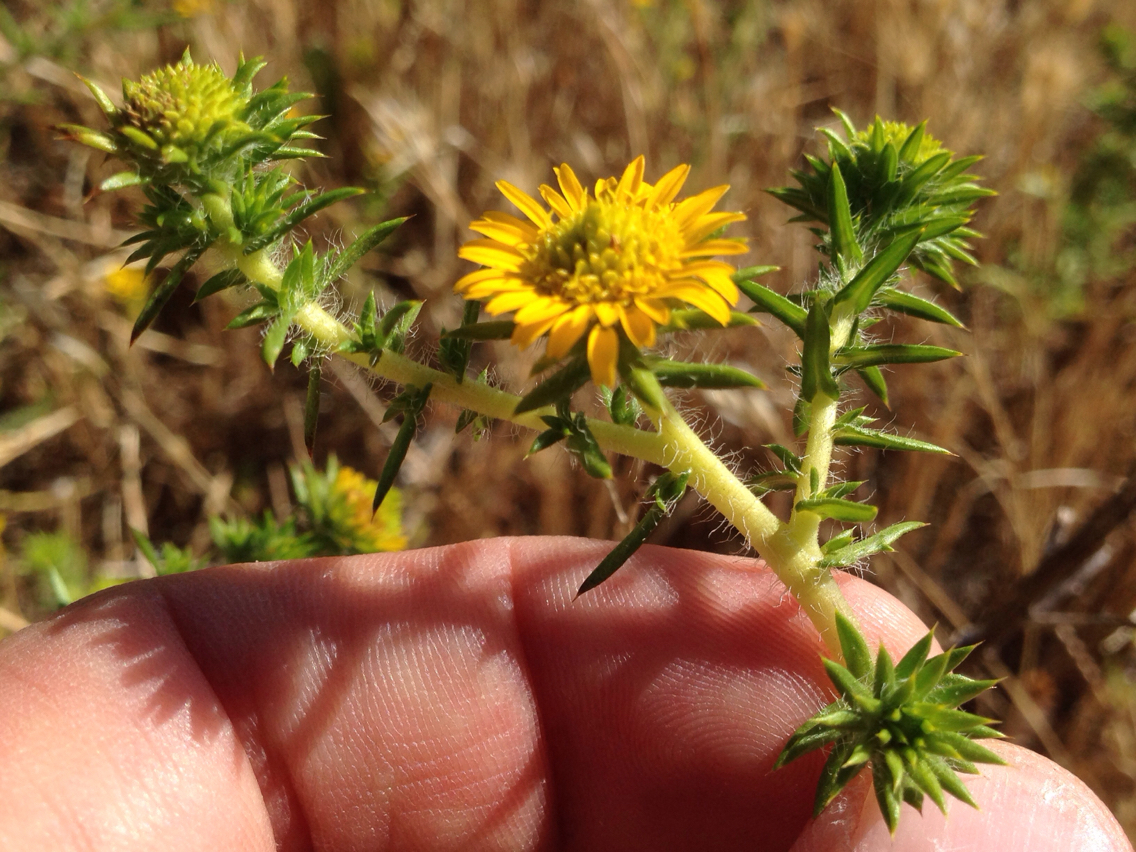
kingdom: Plantae
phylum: Tracheophyta
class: Magnoliopsida
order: Asterales
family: Asteraceae
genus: Centromadia
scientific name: Centromadia pungens
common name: Common spikeweed
